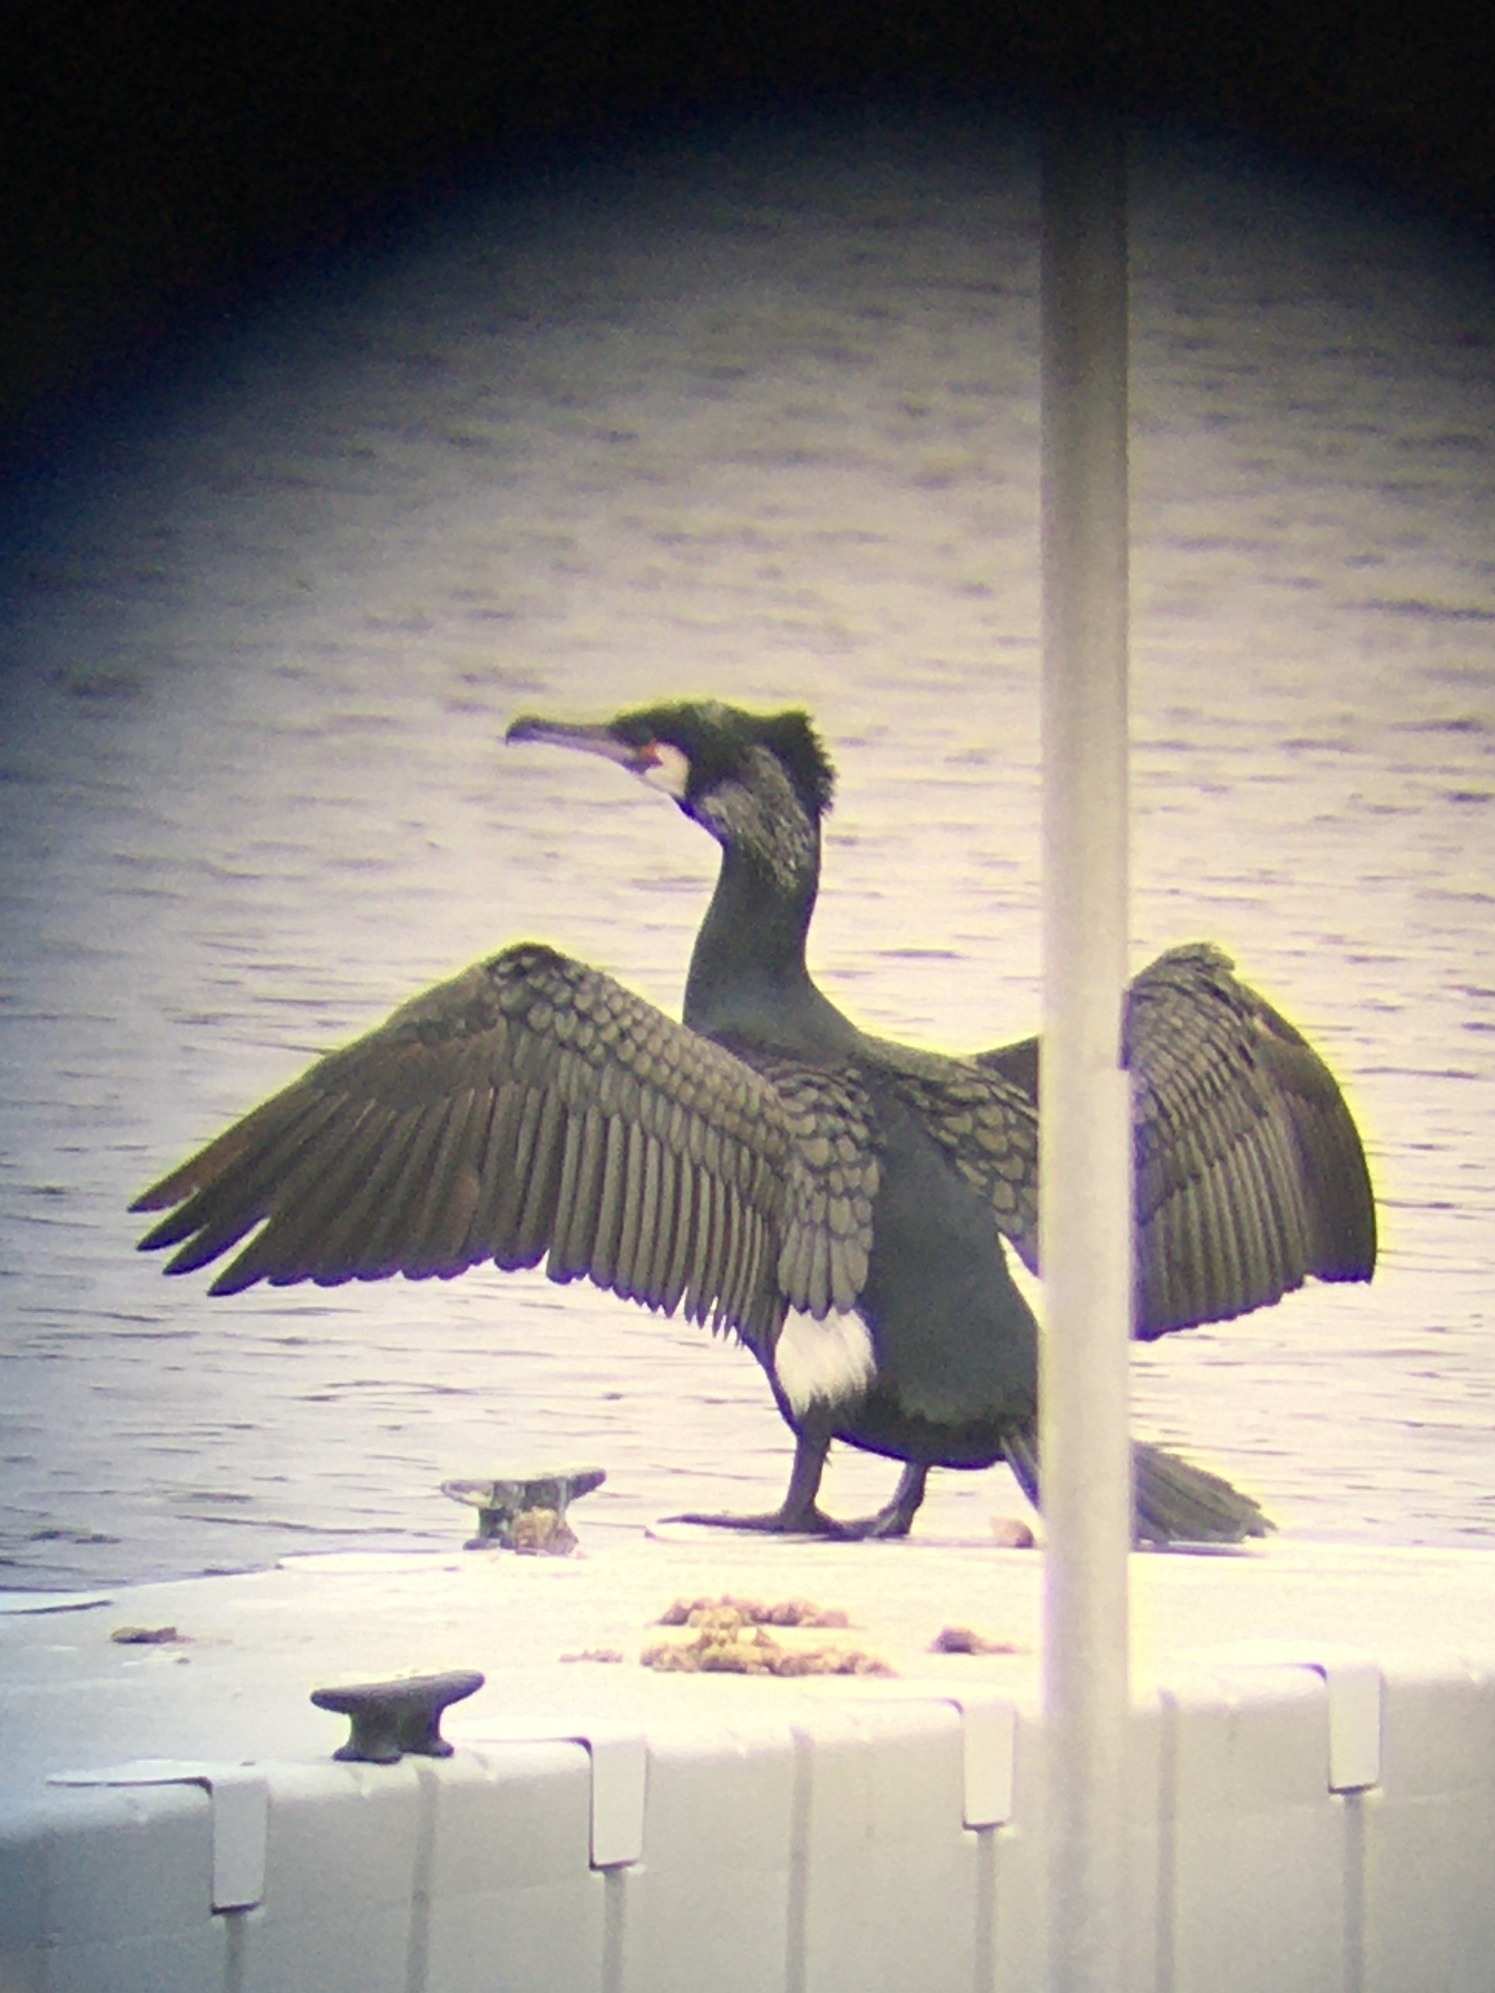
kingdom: Animalia
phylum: Chordata
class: Aves
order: Suliformes
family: Phalacrocoracidae
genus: Phalacrocorax
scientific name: Phalacrocorax carbo
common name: Great cormorant
